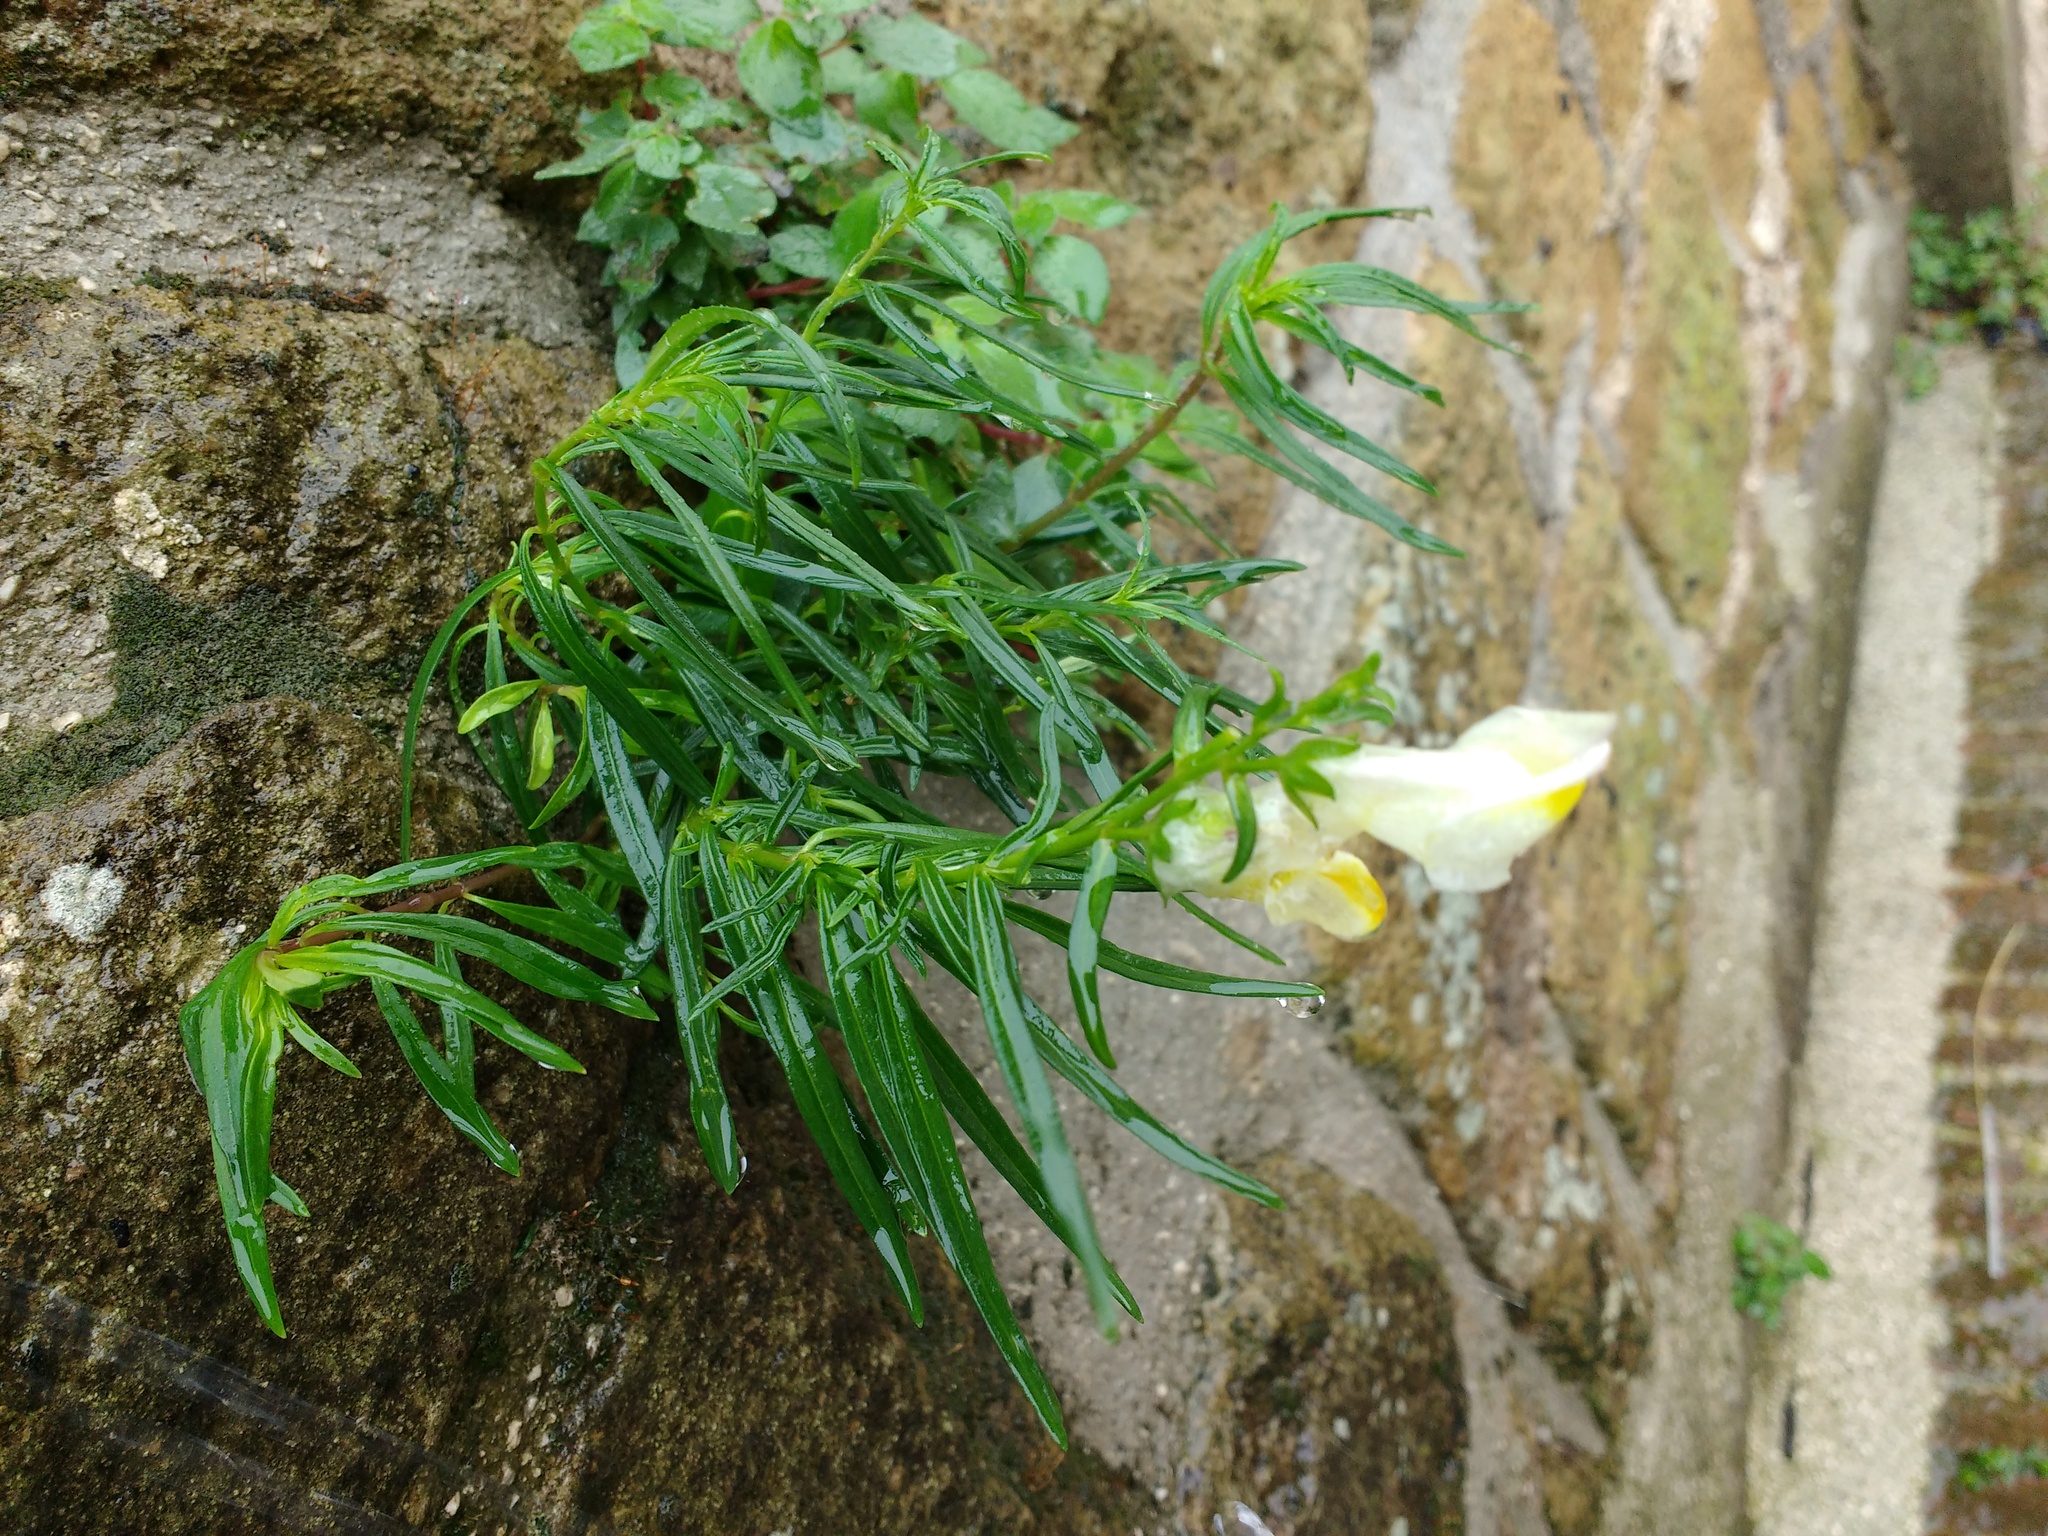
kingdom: Plantae
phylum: Tracheophyta
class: Magnoliopsida
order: Lamiales
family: Plantaginaceae
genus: Antirrhinum
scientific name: Antirrhinum siculum
